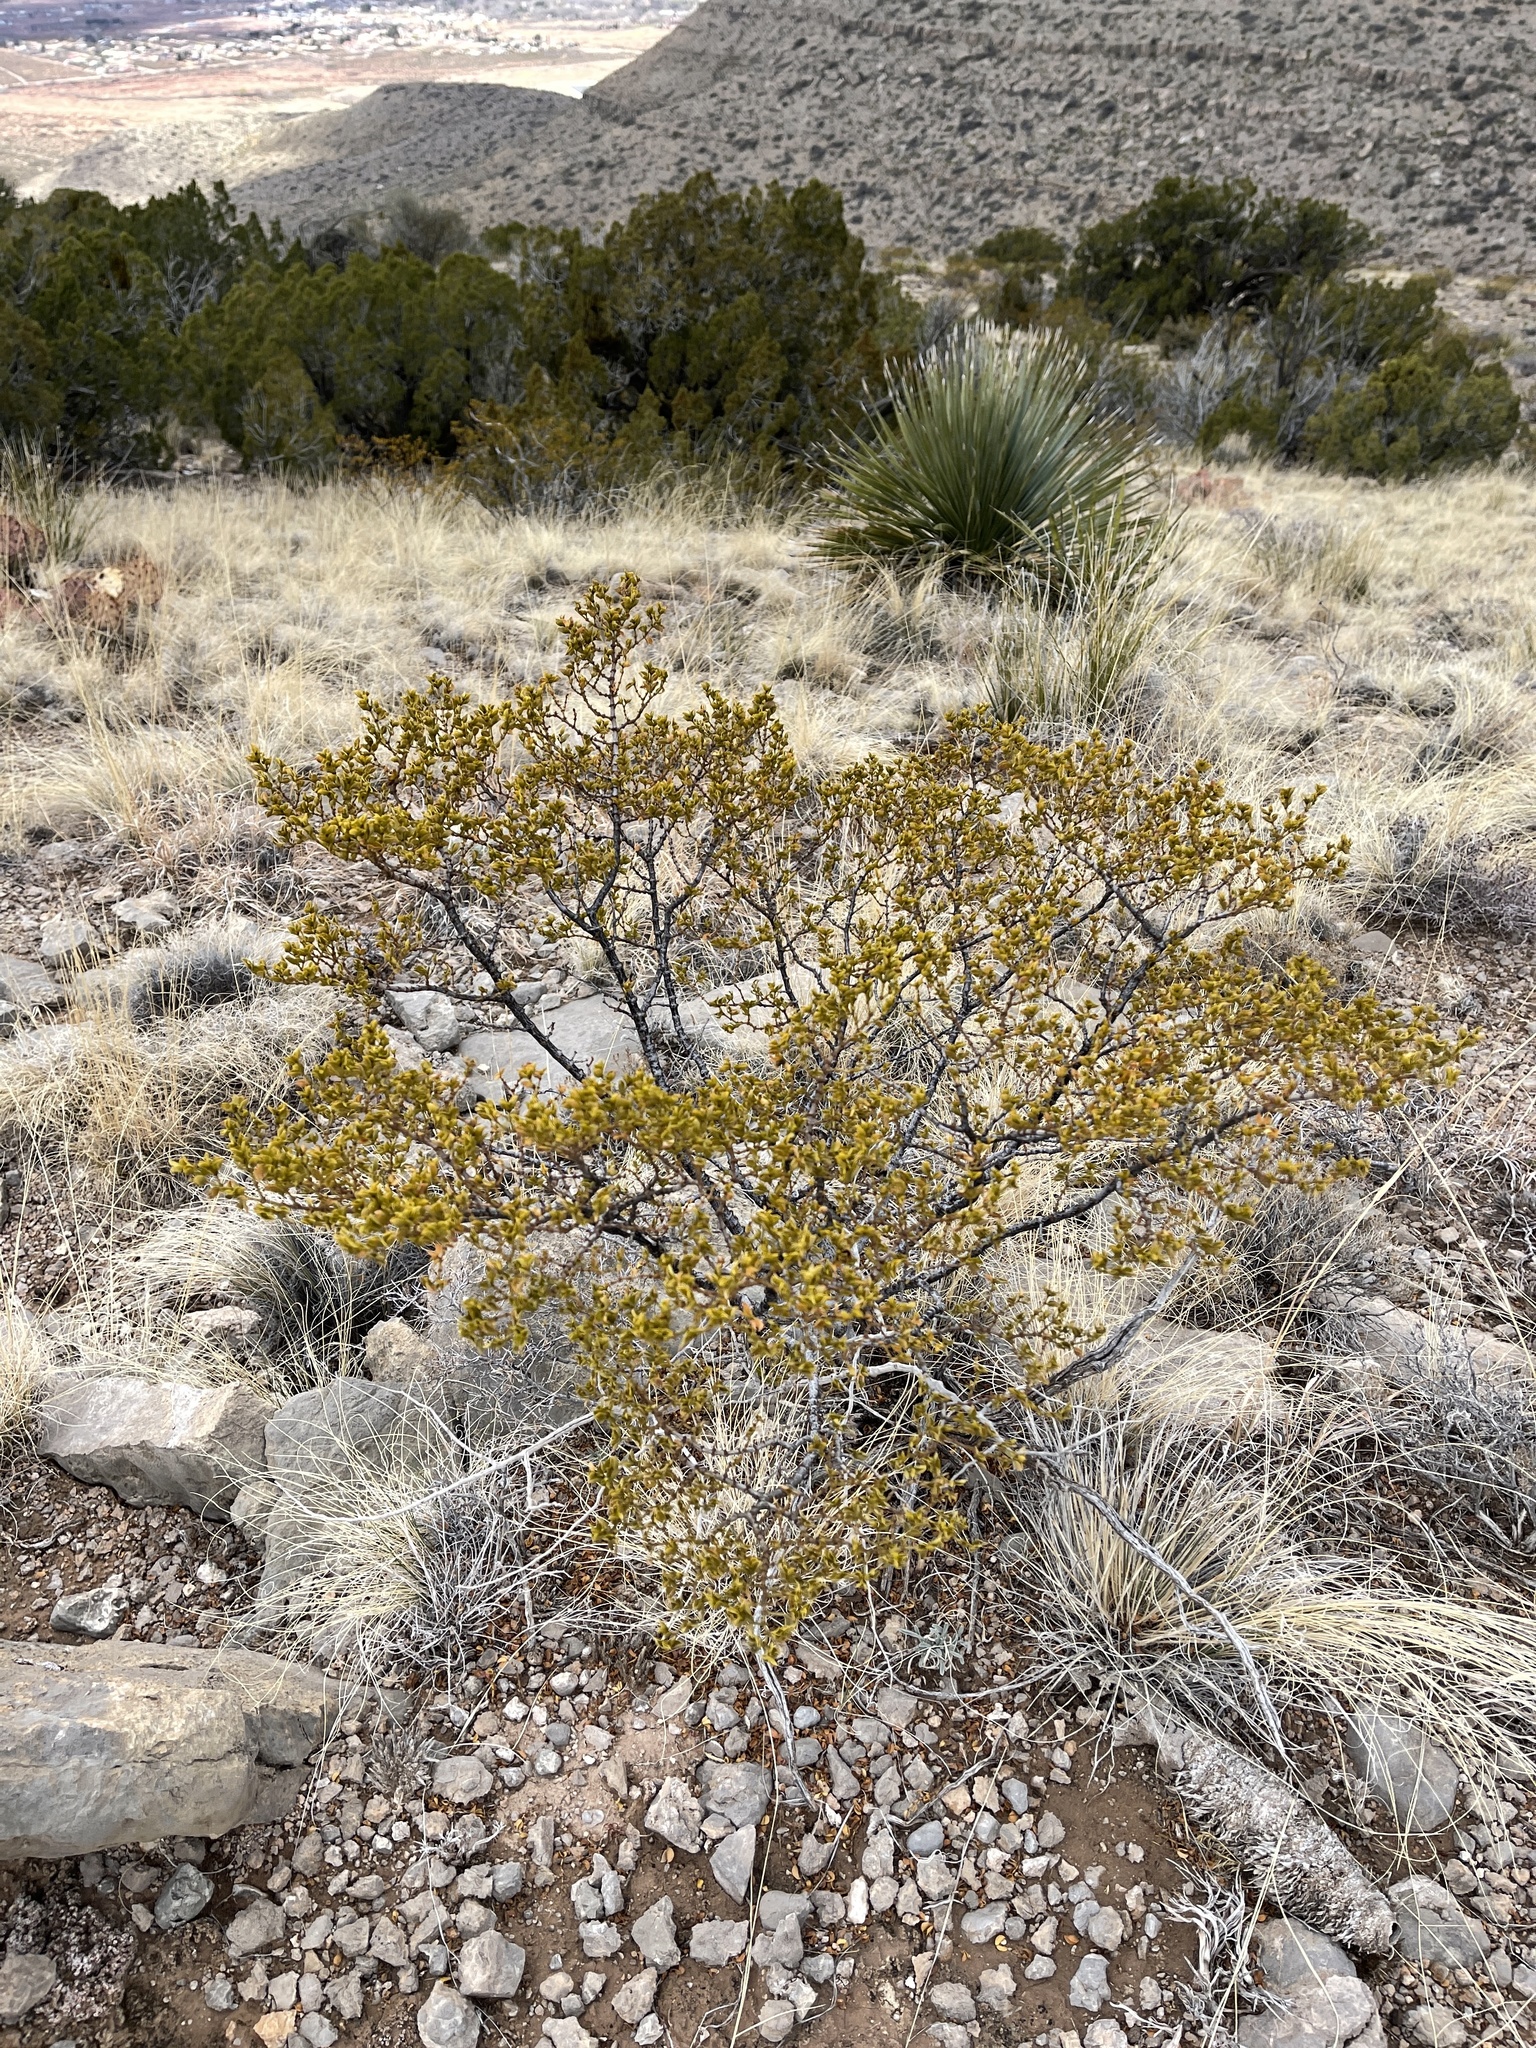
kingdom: Plantae
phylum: Tracheophyta
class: Magnoliopsida
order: Zygophyllales
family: Zygophyllaceae
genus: Larrea
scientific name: Larrea tridentata
